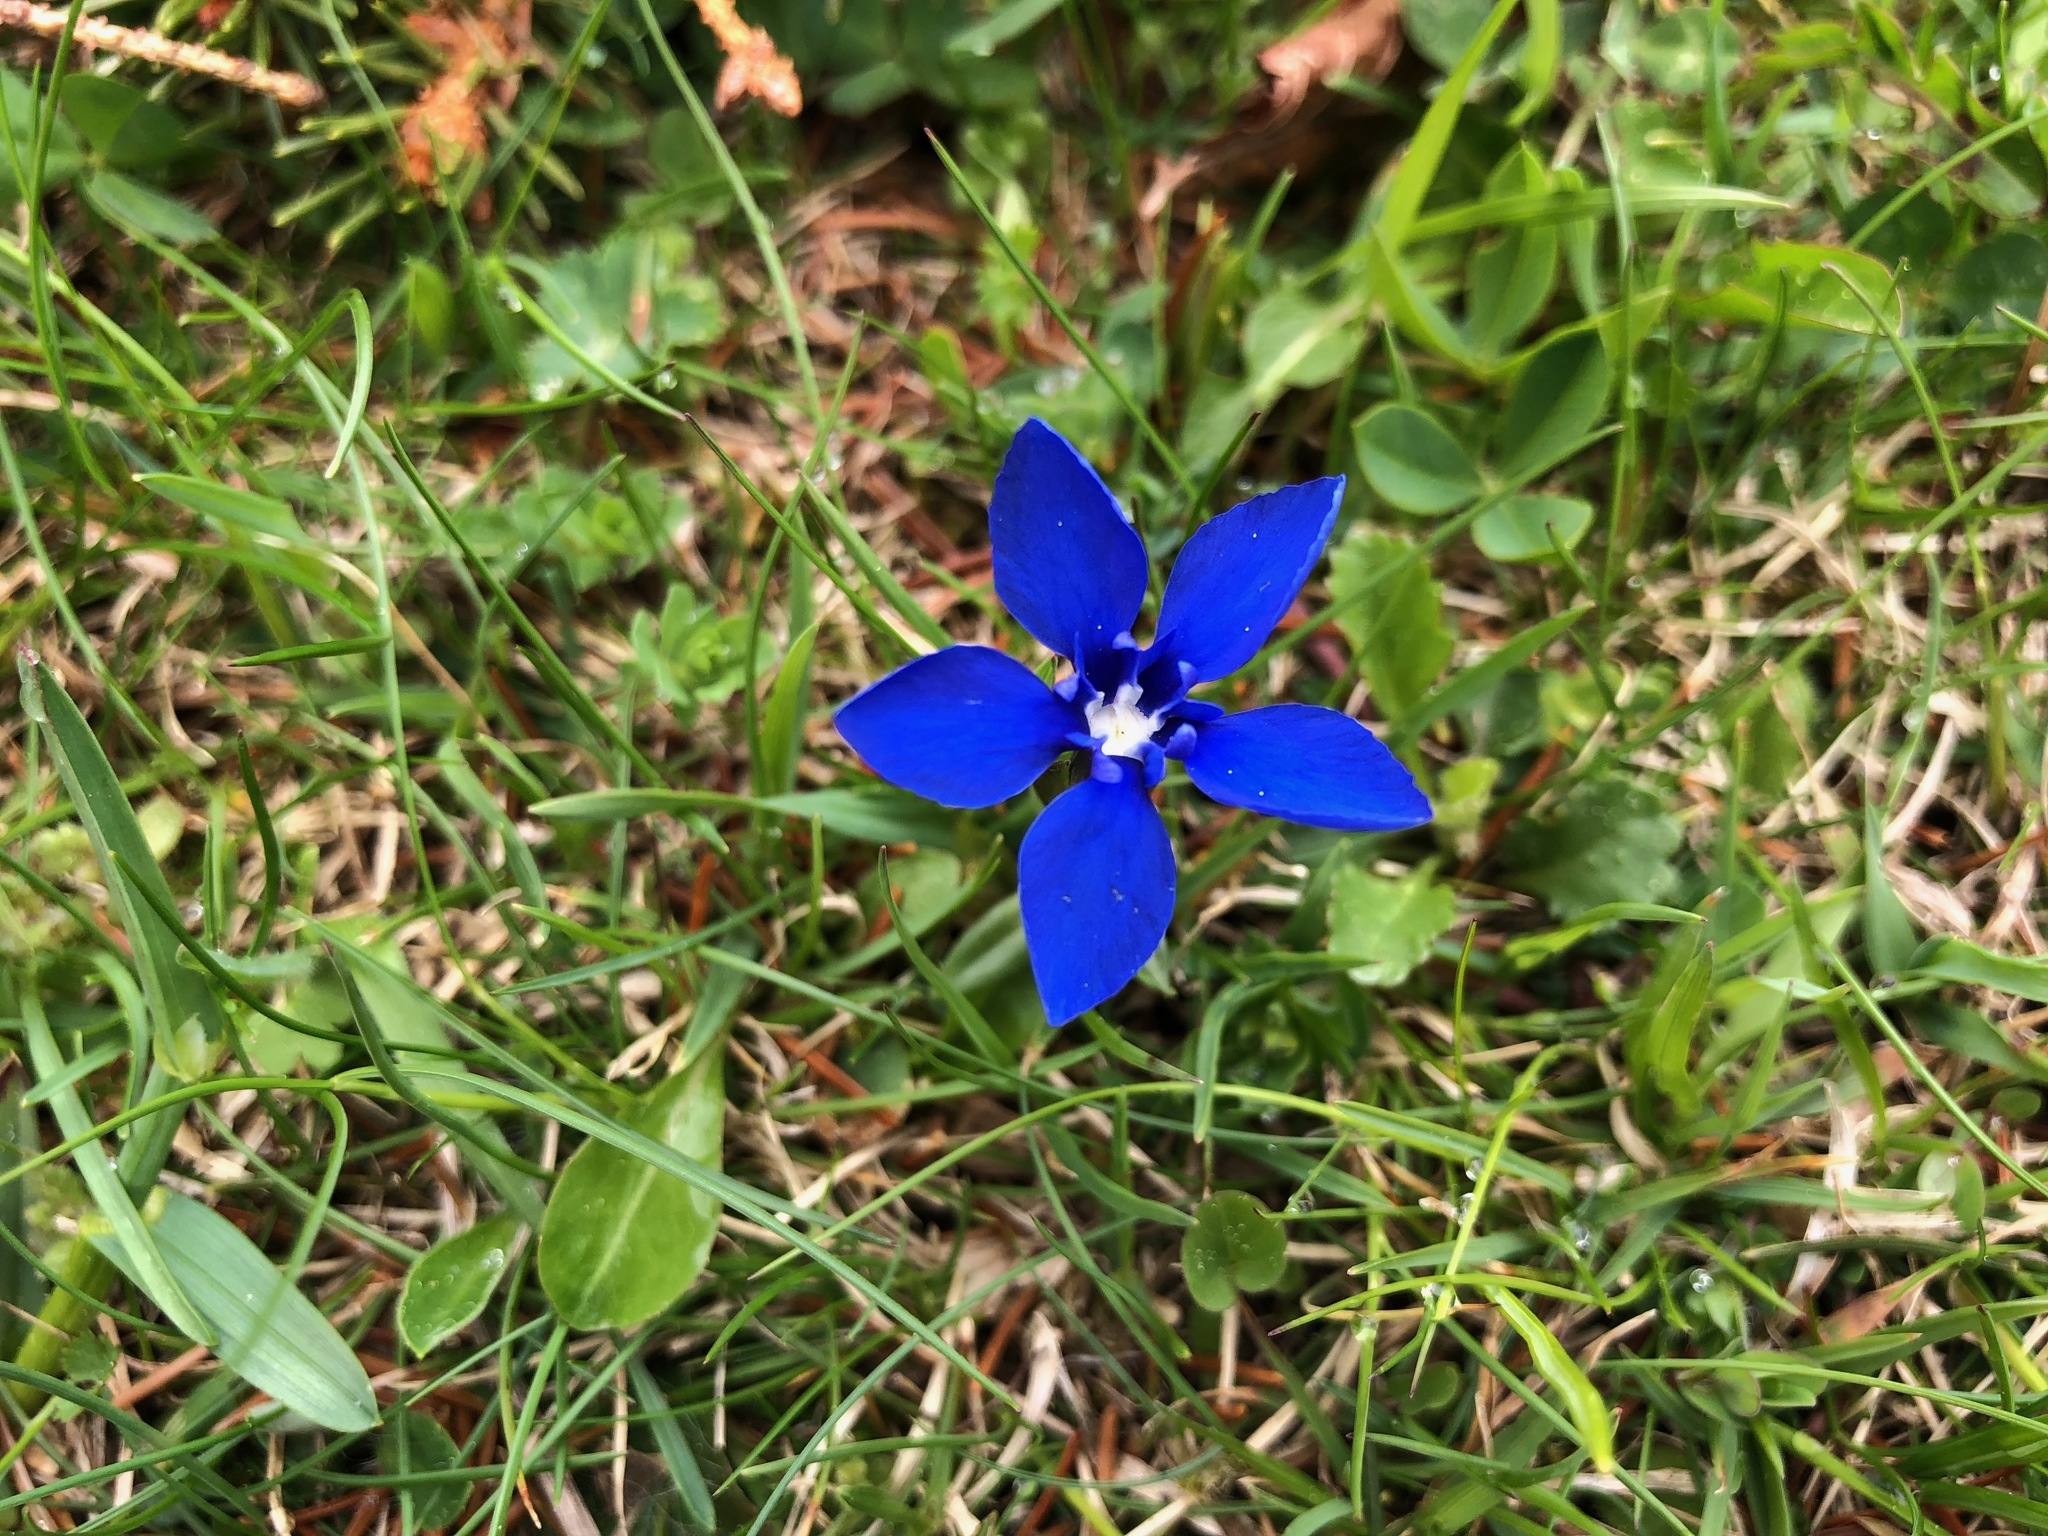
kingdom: Plantae
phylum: Tracheophyta
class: Magnoliopsida
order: Gentianales
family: Gentianaceae
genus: Gentiana
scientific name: Gentiana verna
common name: Spring gentian
